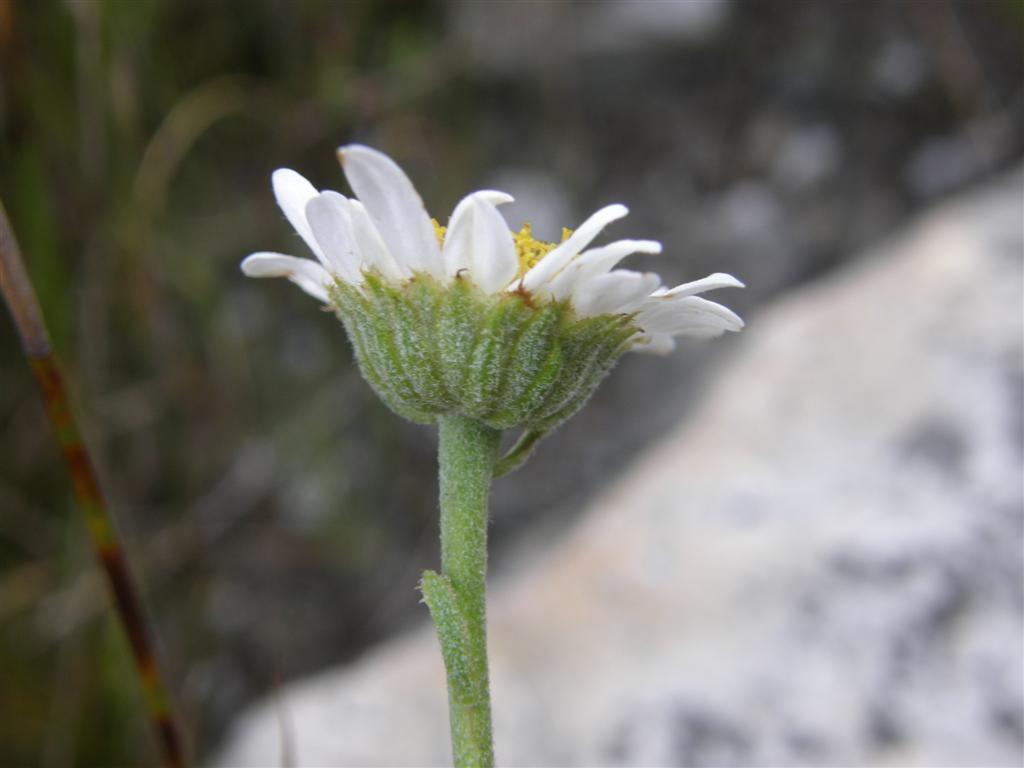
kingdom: Plantae
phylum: Tracheophyta
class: Magnoliopsida
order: Asterales
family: Asteraceae
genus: Osmitopsis
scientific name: Osmitopsis afra
